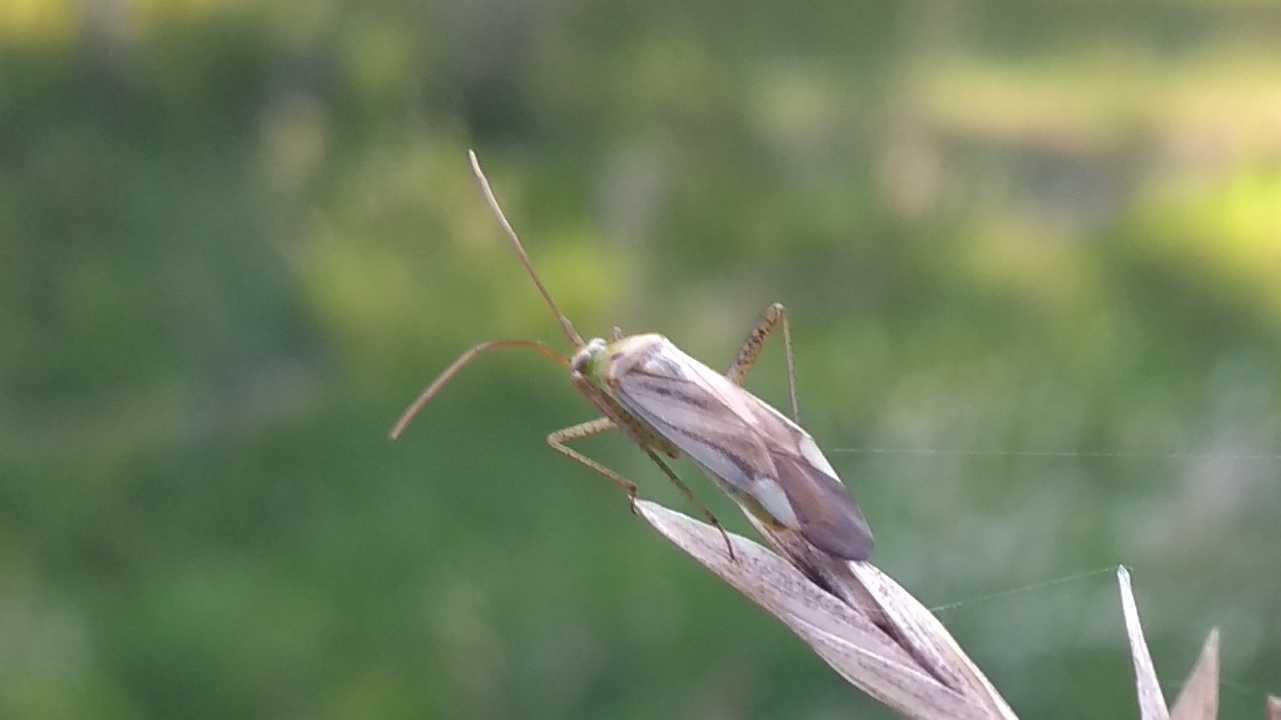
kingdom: Animalia
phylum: Arthropoda
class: Insecta
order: Hemiptera
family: Miridae
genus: Adelphocoris
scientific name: Adelphocoris lineolatus
